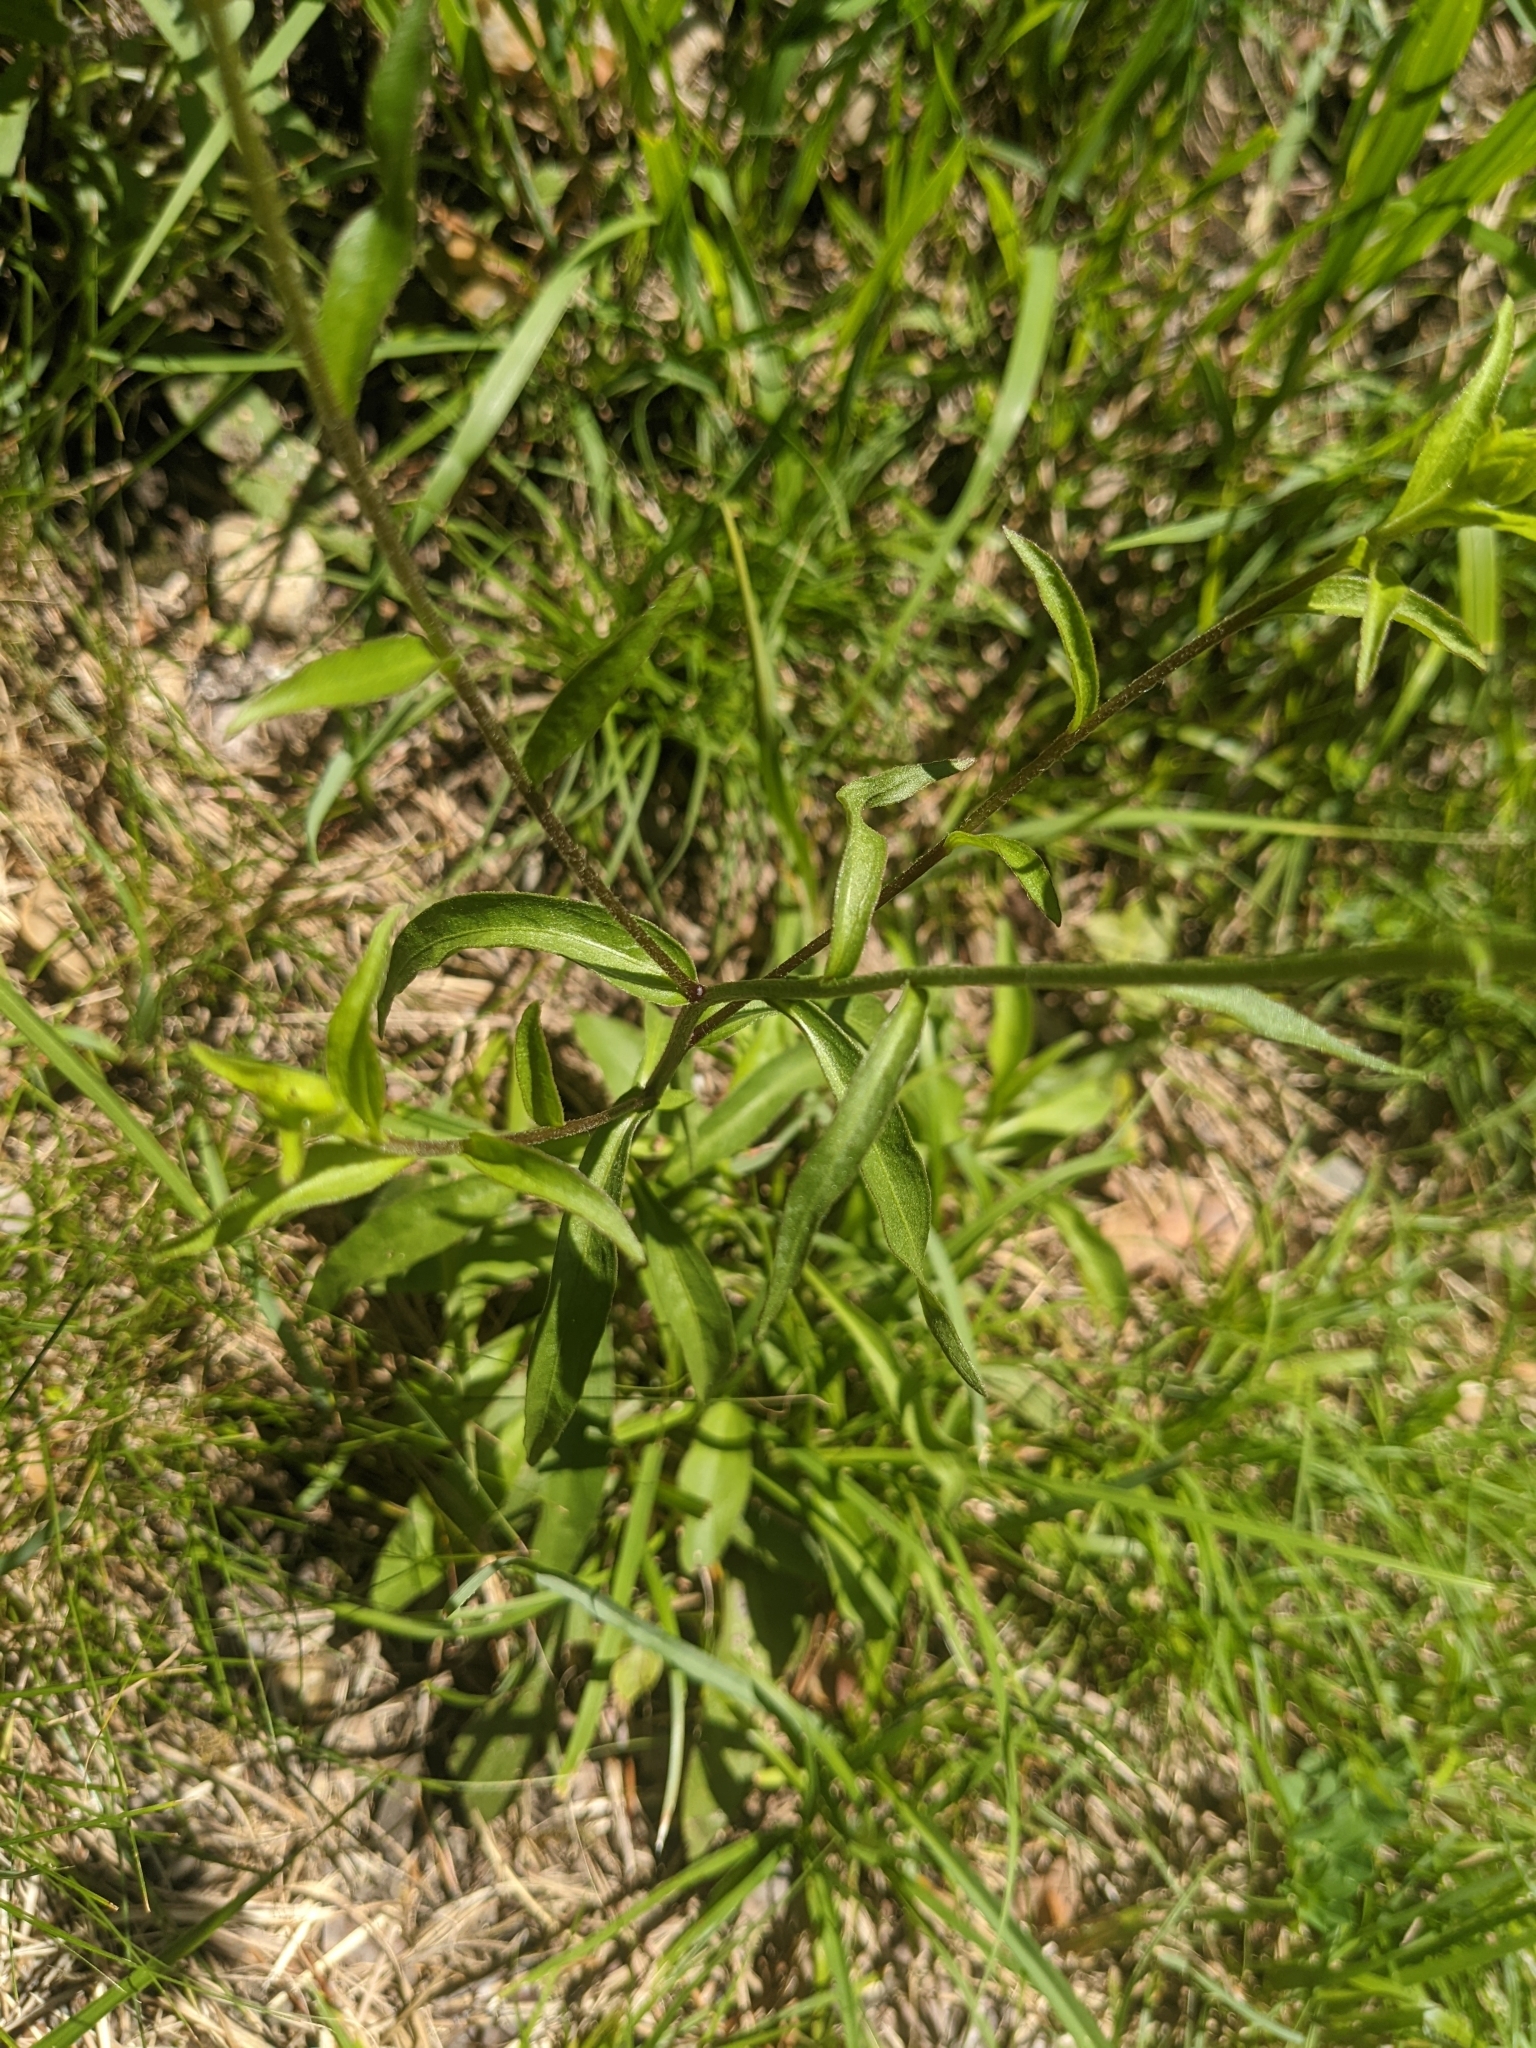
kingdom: Plantae
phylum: Tracheophyta
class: Magnoliopsida
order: Asterales
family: Asteraceae
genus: Buphthalmum
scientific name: Buphthalmum salicifolium
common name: Willow-leaved yellow-oxeye
